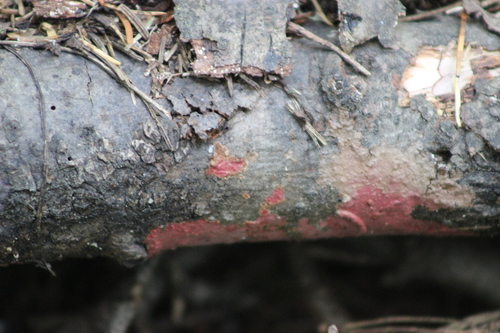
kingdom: Fungi
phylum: Basidiomycota
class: Agaricomycetes
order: Hymenochaetales
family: Hymenochaetaceae
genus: Hymenochaete
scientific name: Hymenochaete cruenta
